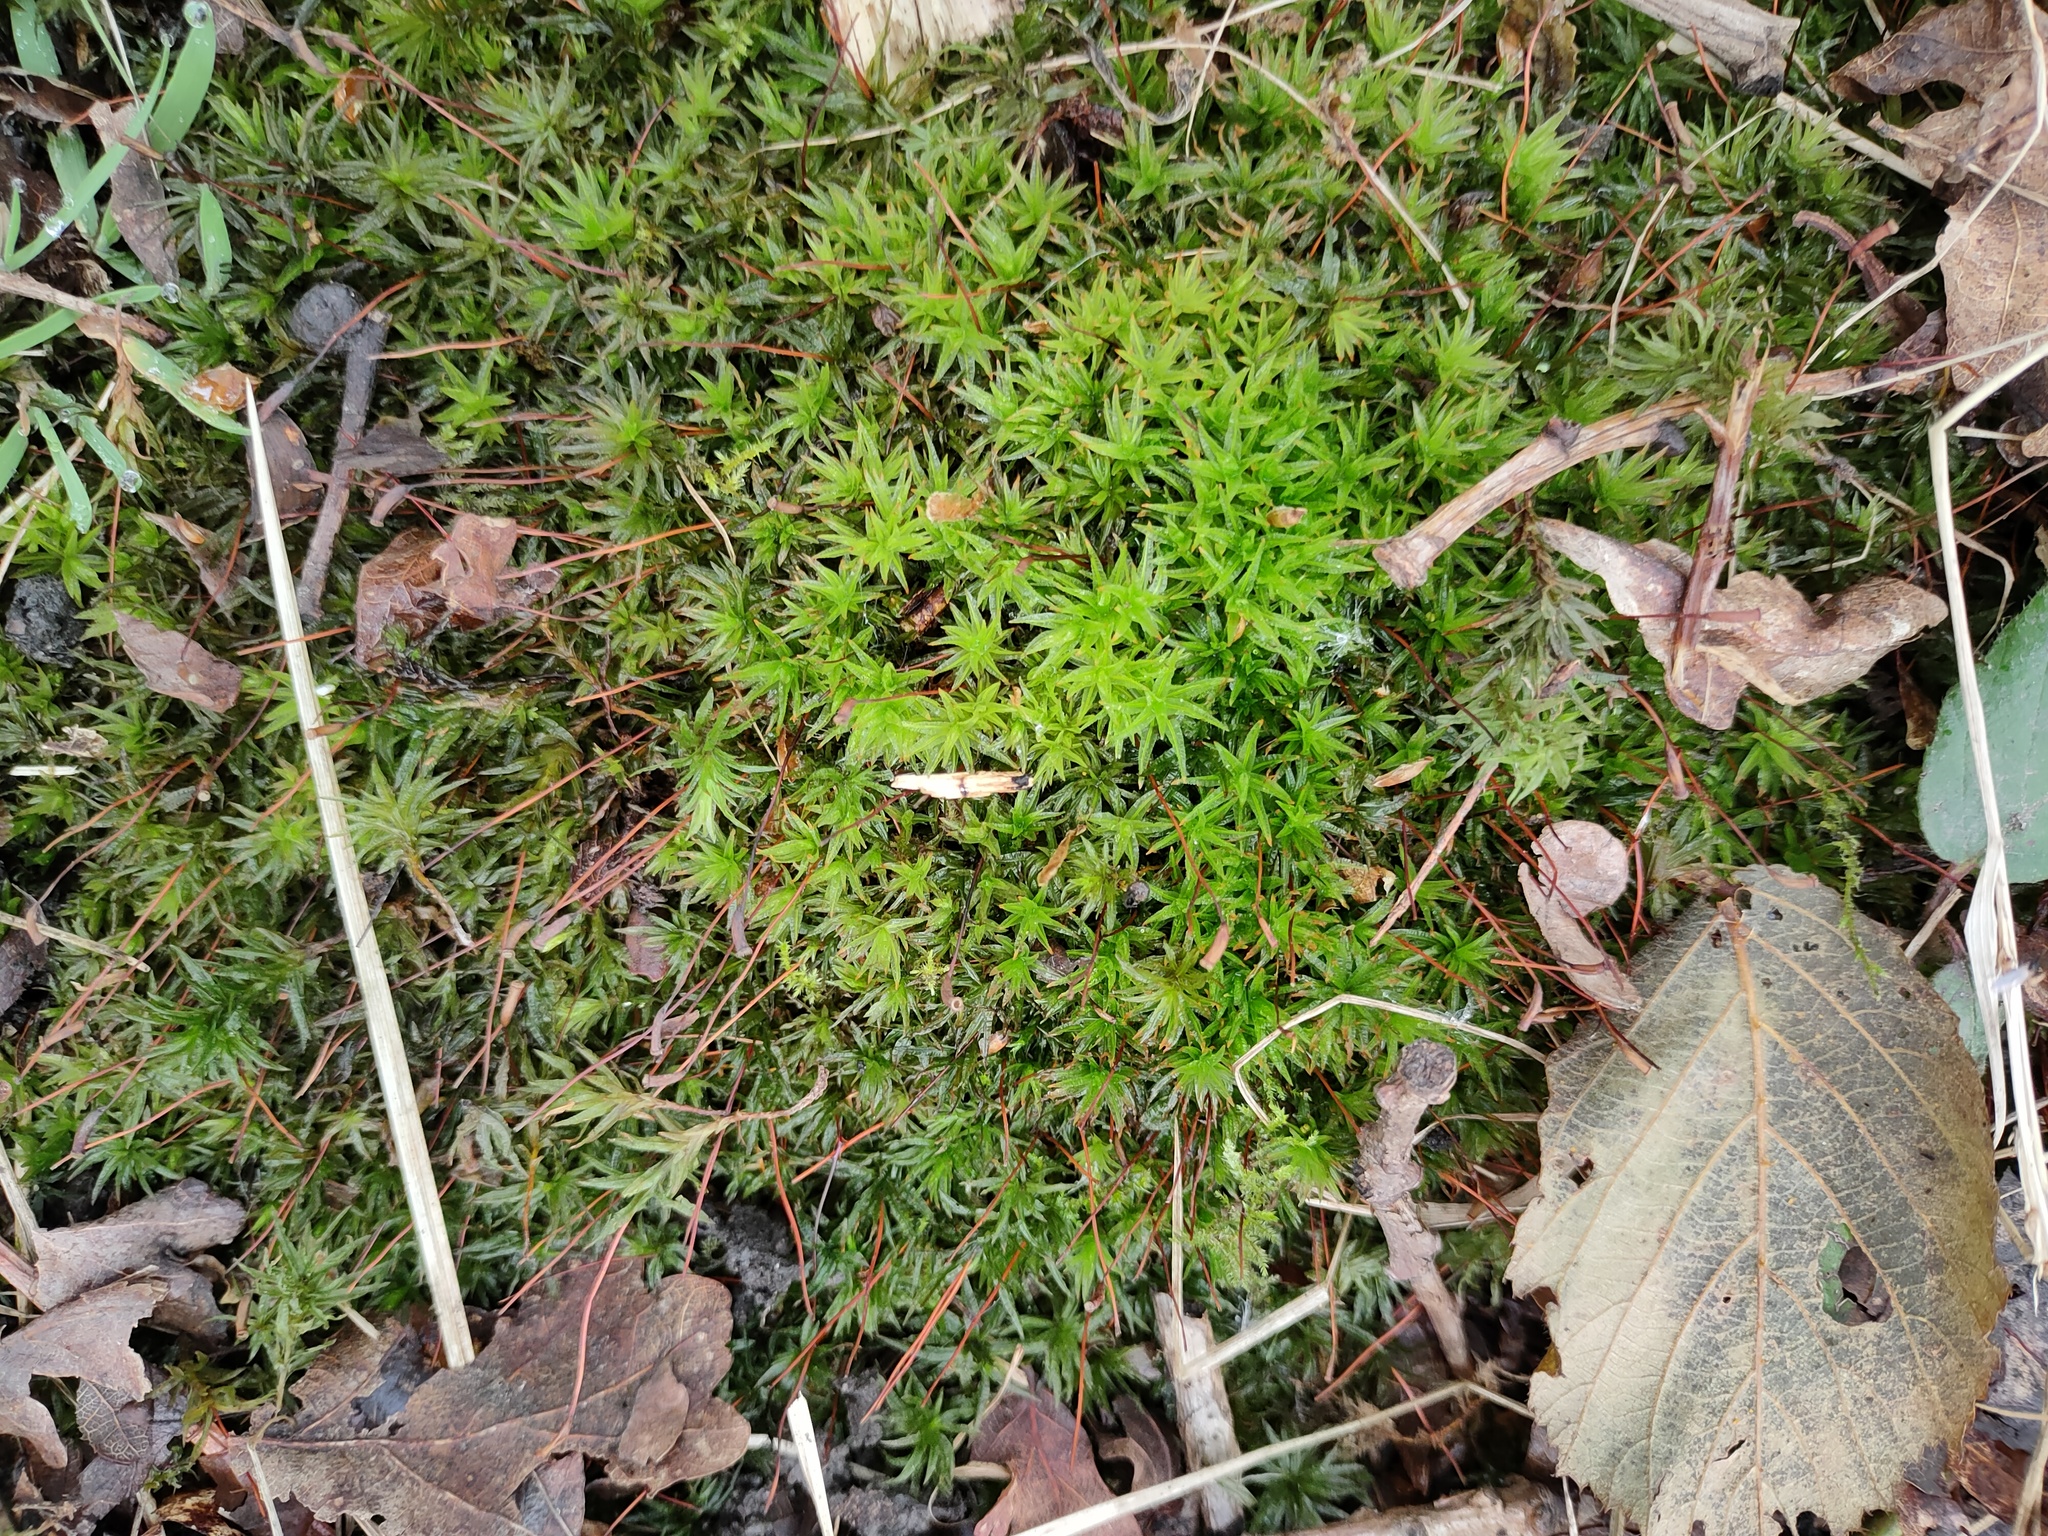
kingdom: Plantae
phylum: Bryophyta
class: Polytrichopsida
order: Polytrichales
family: Polytrichaceae
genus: Atrichum
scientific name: Atrichum undulatum
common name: Common smoothcap
